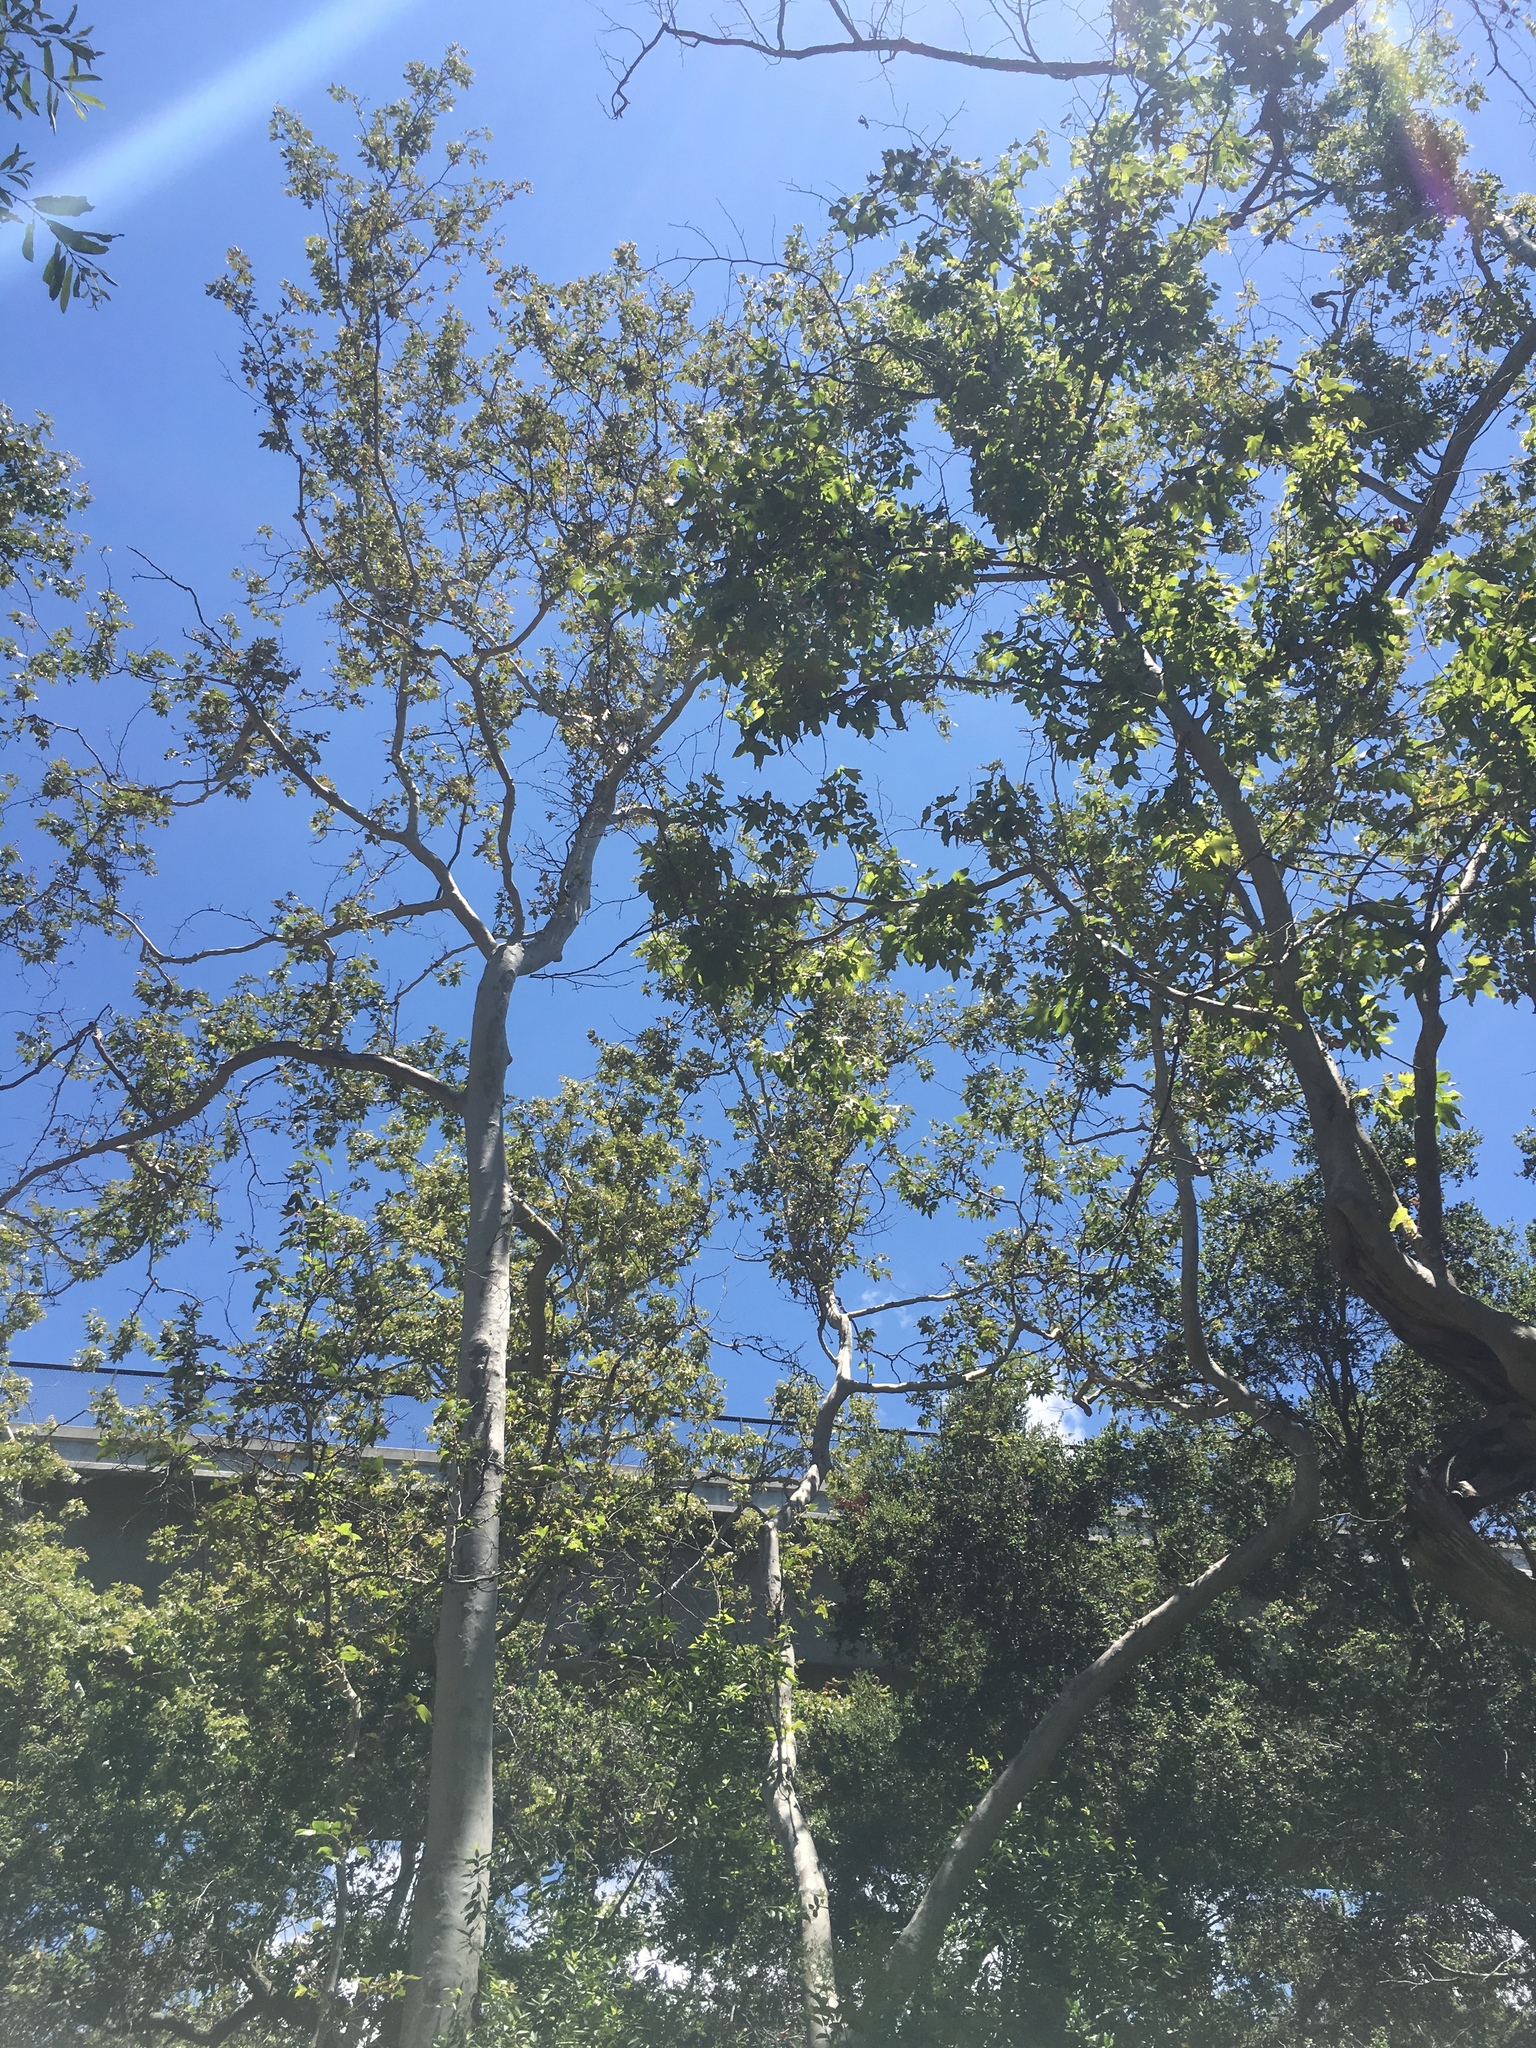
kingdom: Plantae
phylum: Tracheophyta
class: Magnoliopsida
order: Proteales
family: Platanaceae
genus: Platanus
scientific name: Platanus racemosa
